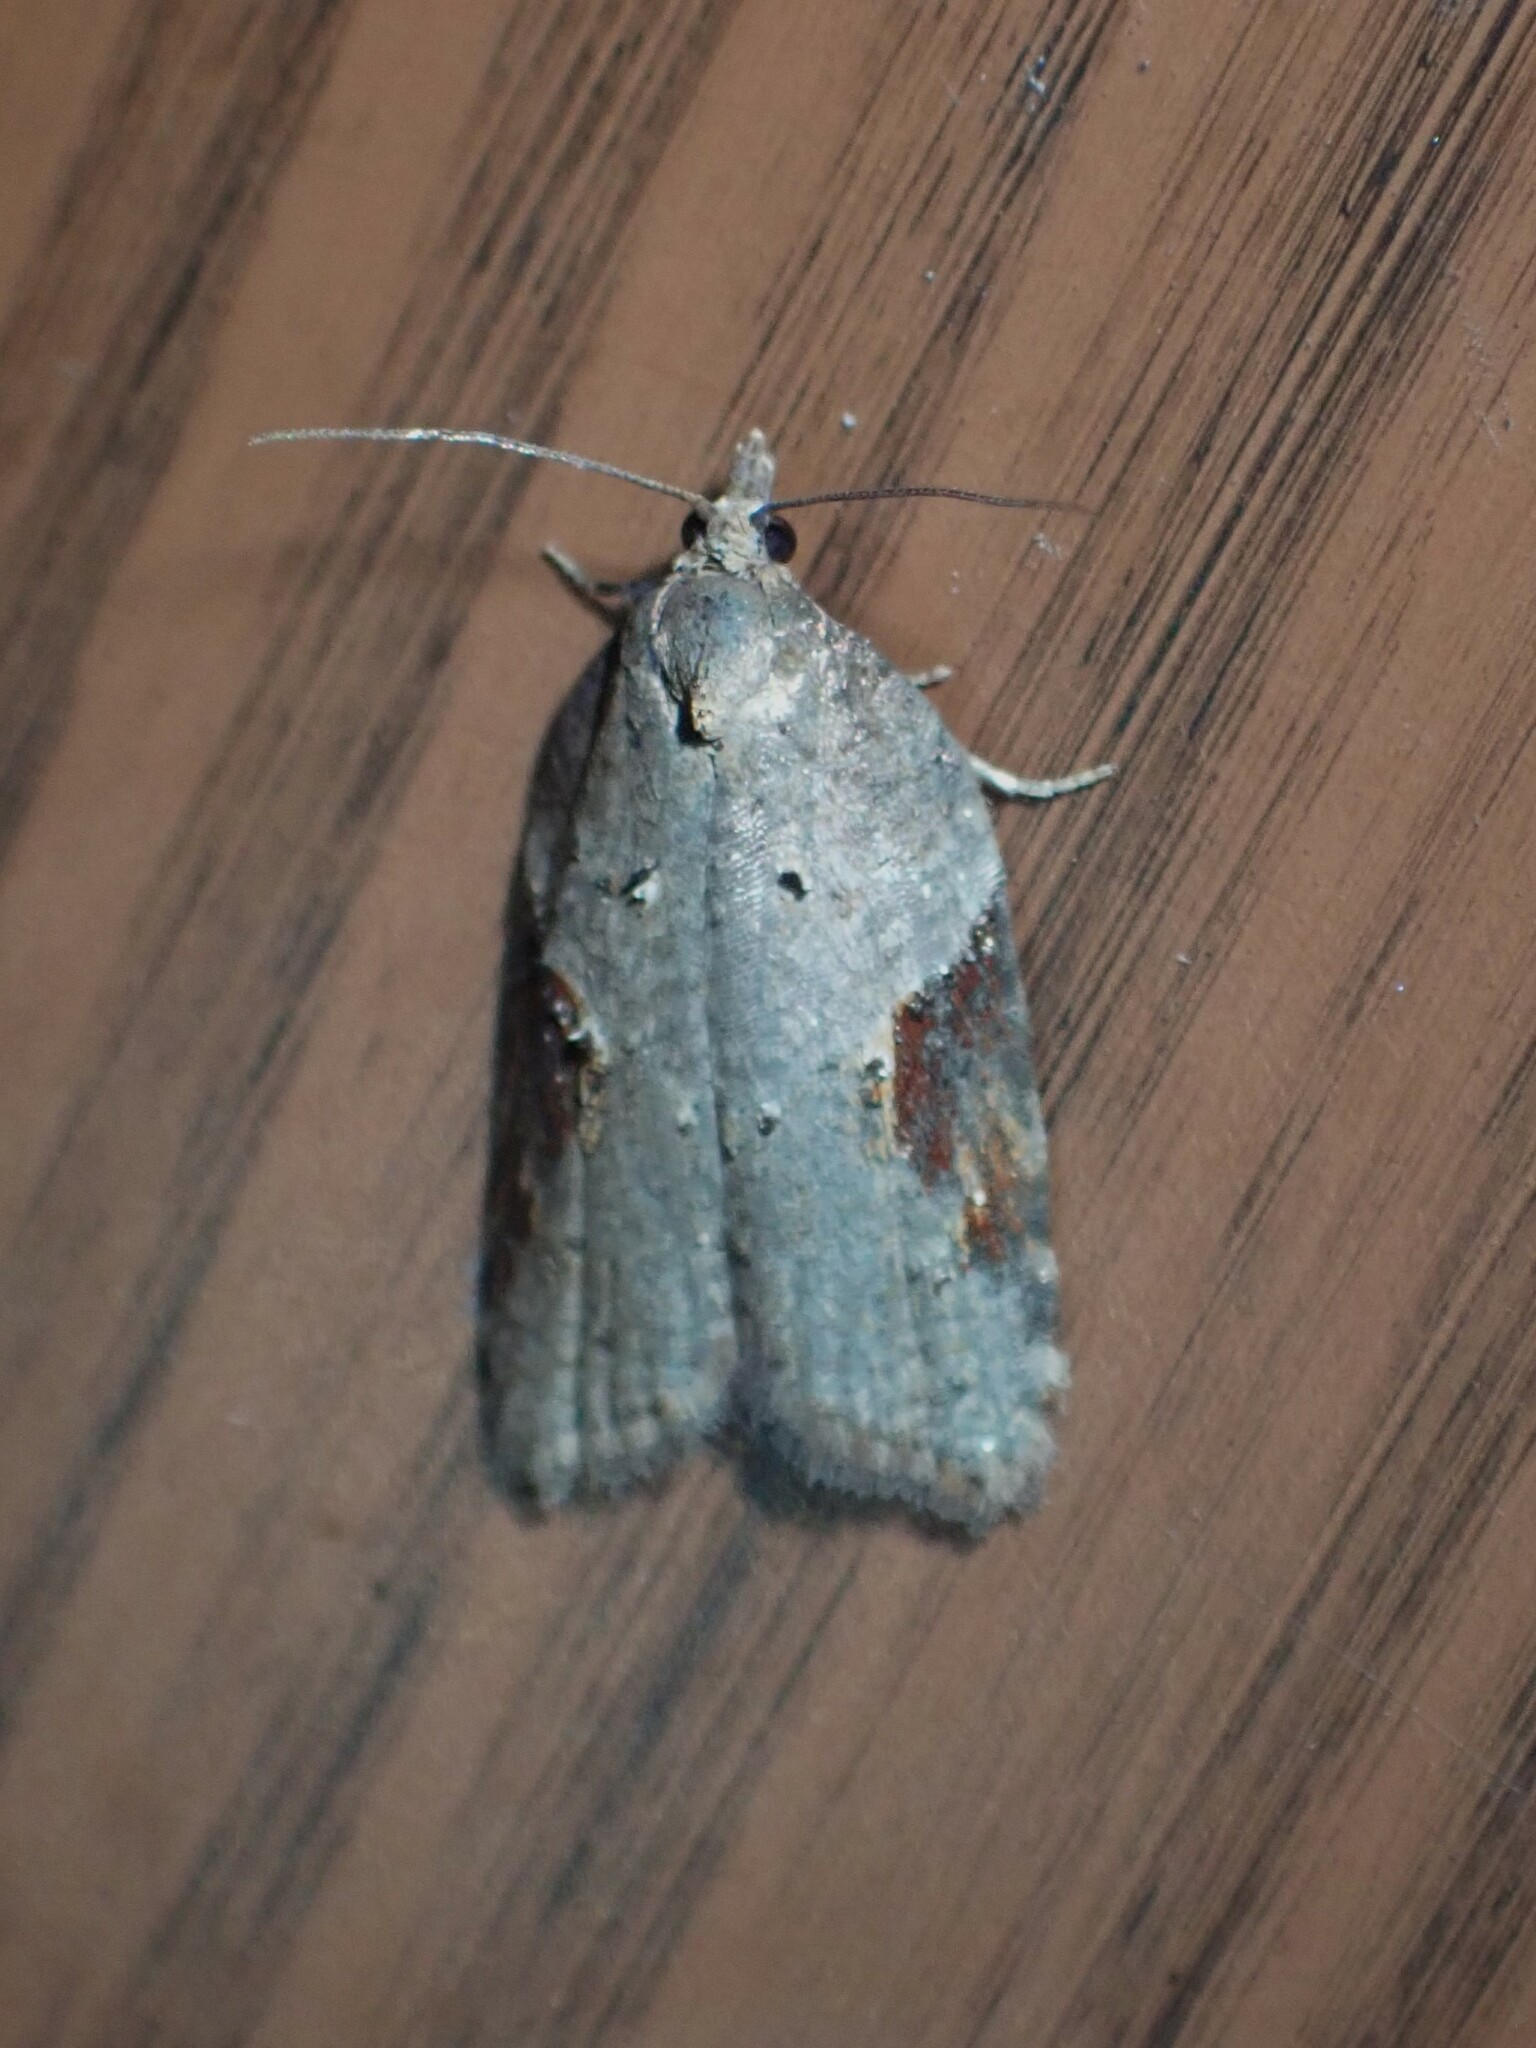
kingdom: Animalia
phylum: Arthropoda
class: Insecta
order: Lepidoptera
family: Tortricidae
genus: Acleris
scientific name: Acleris macdunnoughi
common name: Macdunnough's acleris
